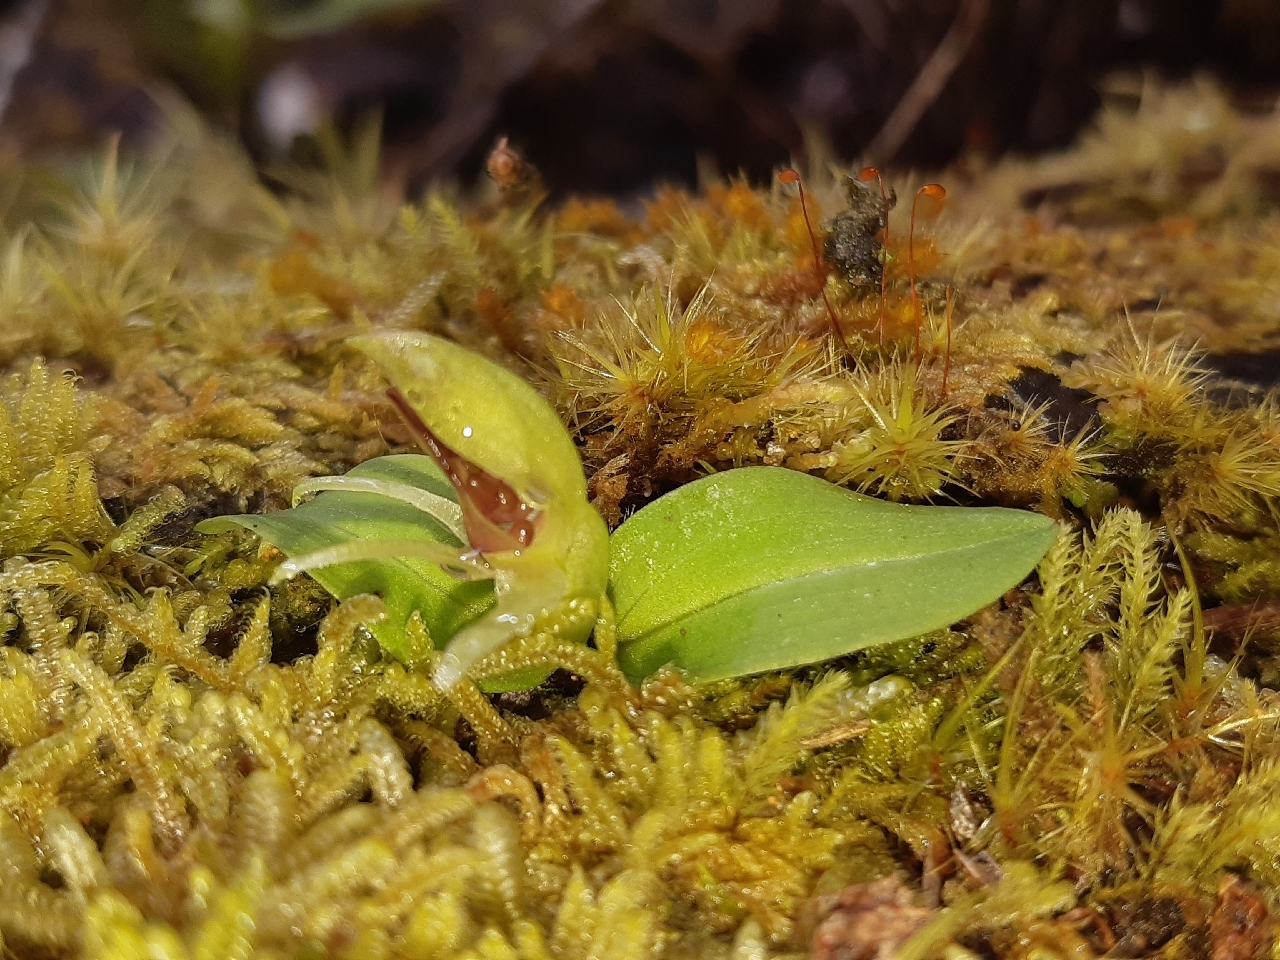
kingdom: Plantae
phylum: Tracheophyta
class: Liliopsida
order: Asparagales
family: Orchidaceae
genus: Chiloglottis
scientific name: Chiloglottis cornuta
